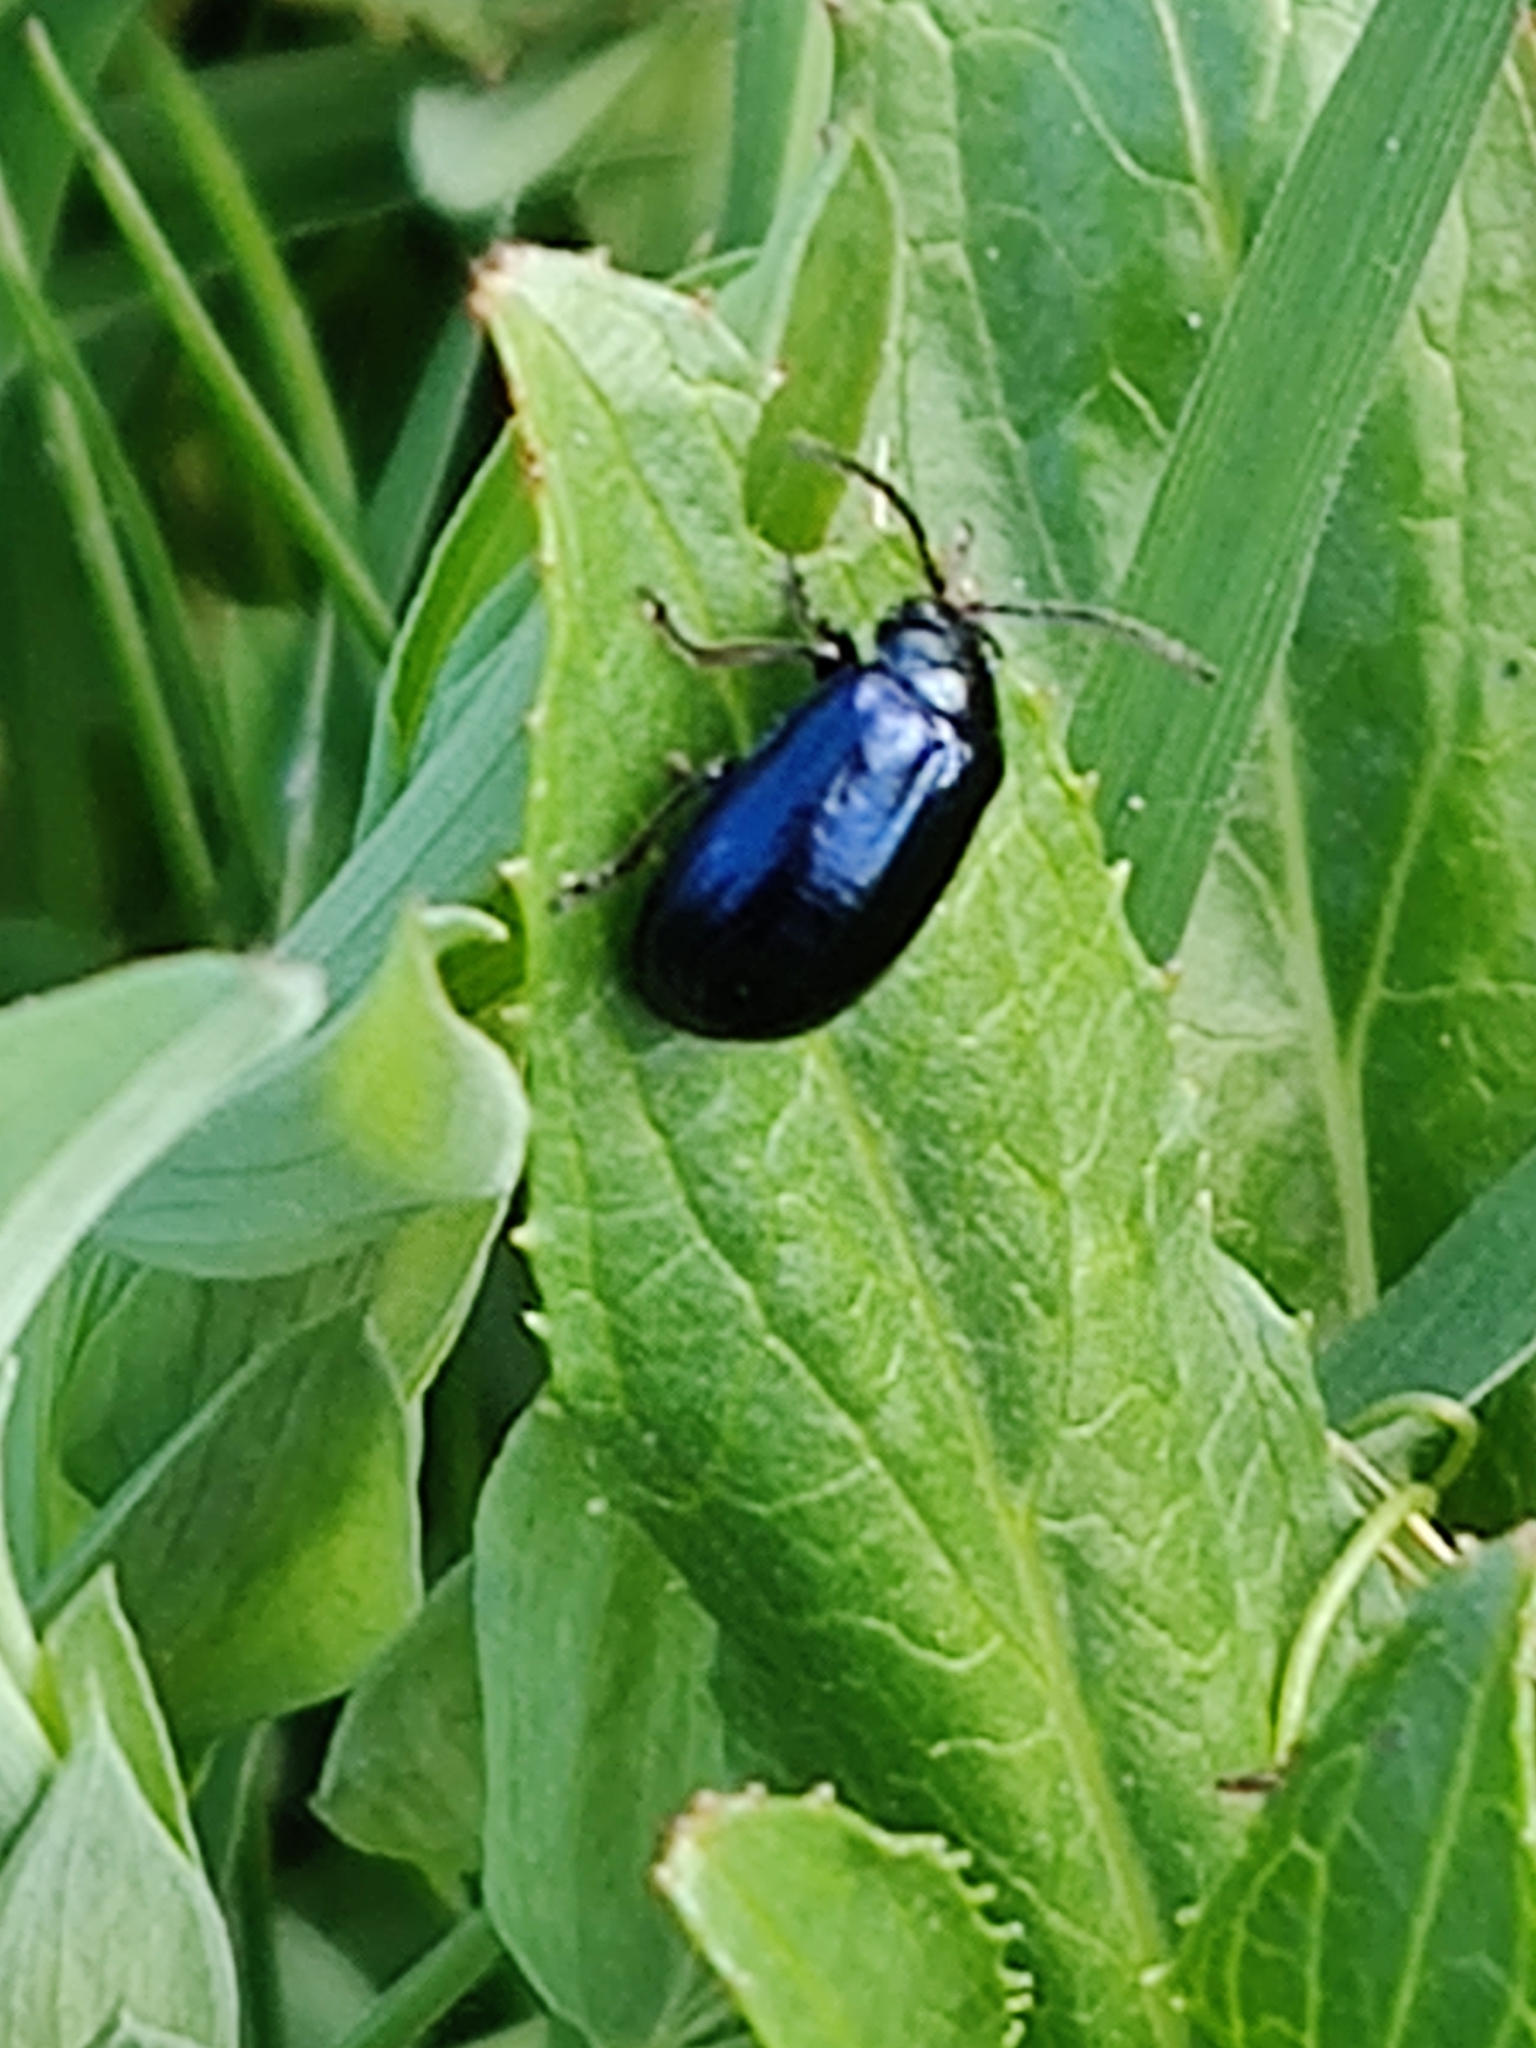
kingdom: Animalia
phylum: Arthropoda
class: Insecta
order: Coleoptera
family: Chrysomelidae
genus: Agelastica
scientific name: Agelastica alni
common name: Alder leaf beetle
